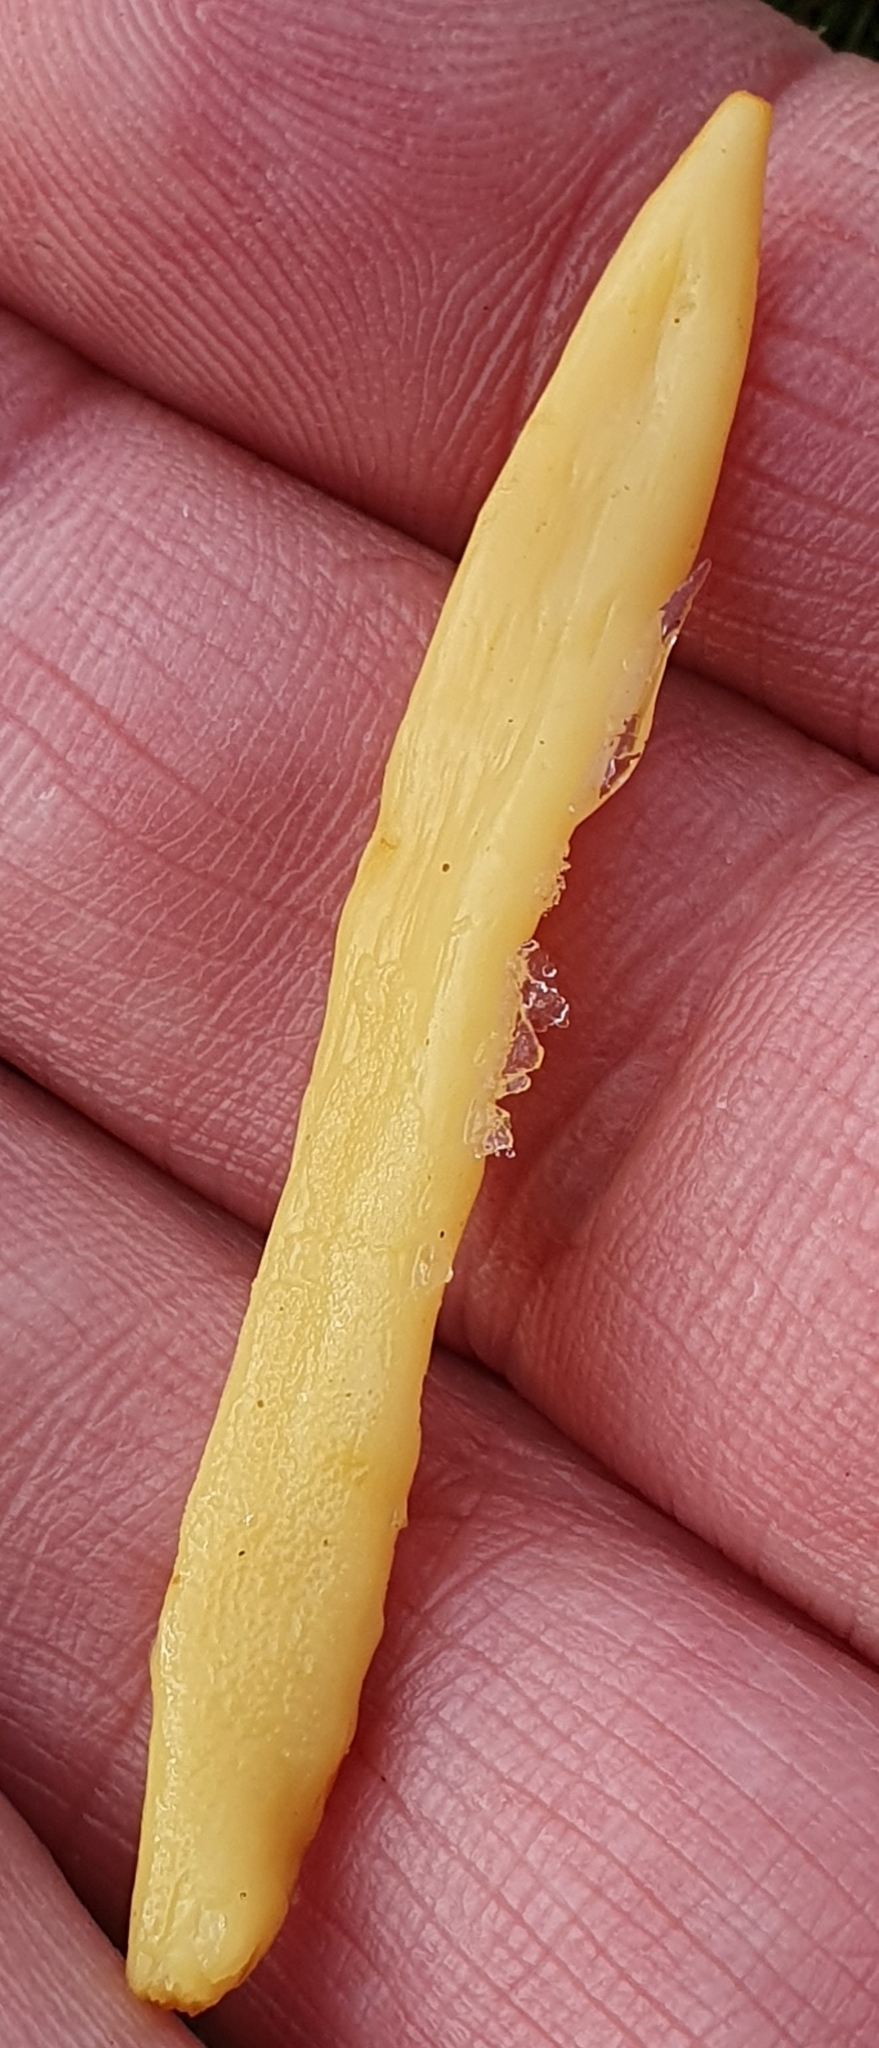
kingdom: Fungi
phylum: Basidiomycota
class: Agaricomycetes
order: Agaricales
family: Clavariaceae
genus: Clavulinopsis
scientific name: Clavulinopsis fusiformis
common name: Golden spindles
